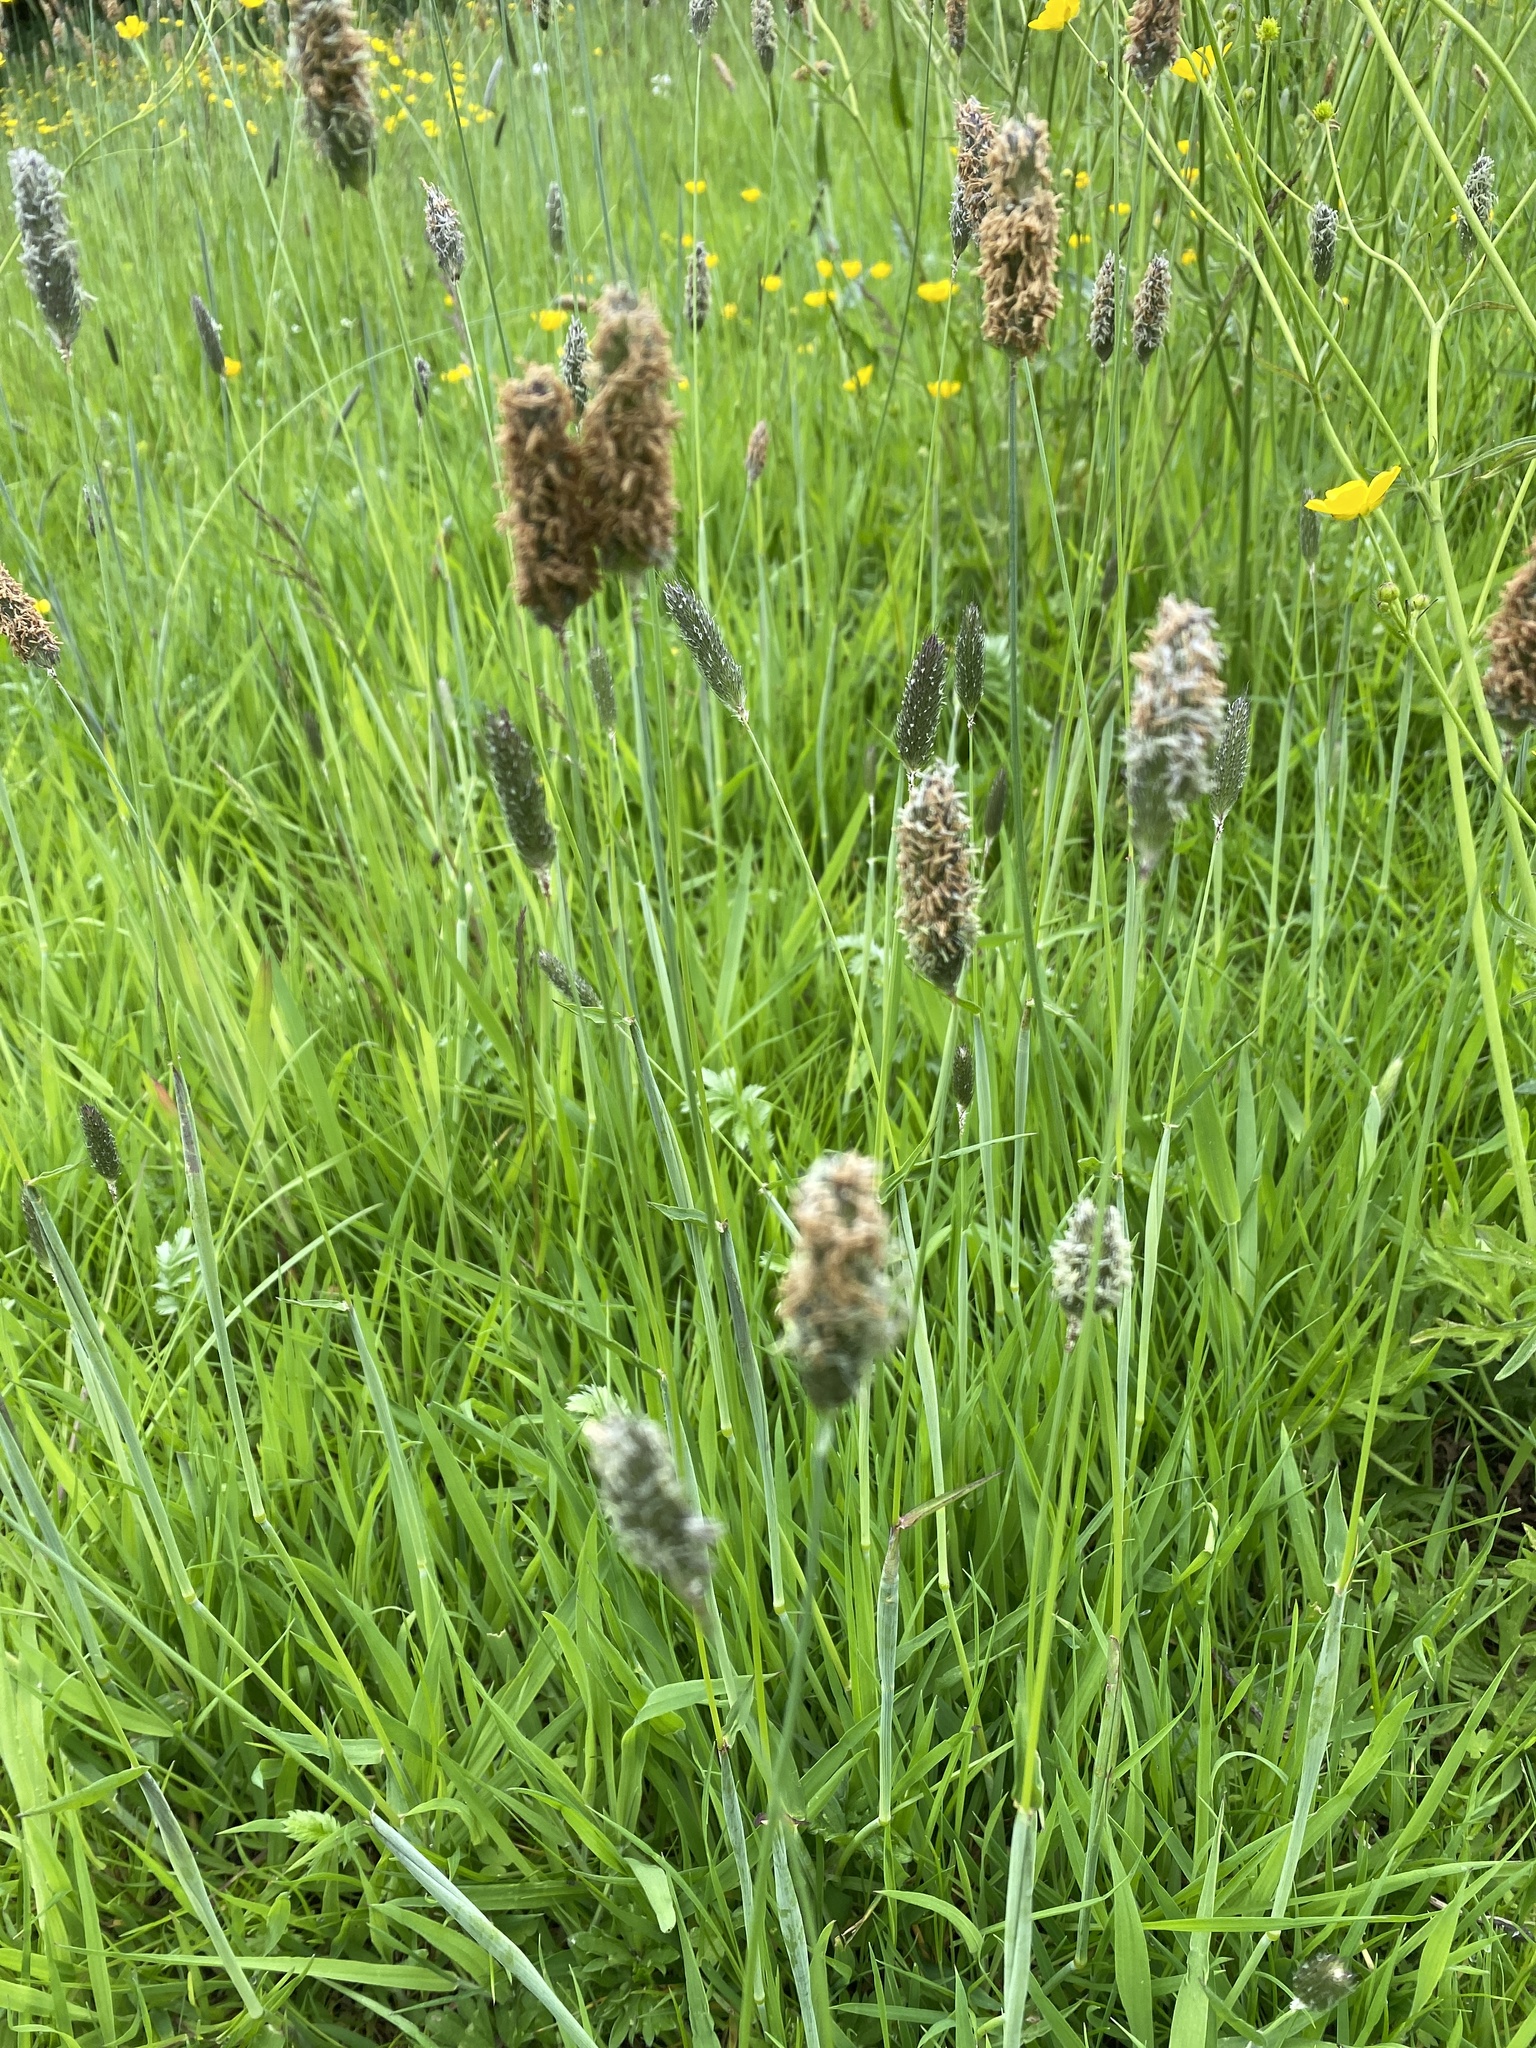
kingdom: Plantae
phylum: Tracheophyta
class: Liliopsida
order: Poales
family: Poaceae
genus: Alopecurus
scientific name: Alopecurus pratensis
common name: Meadow foxtail
